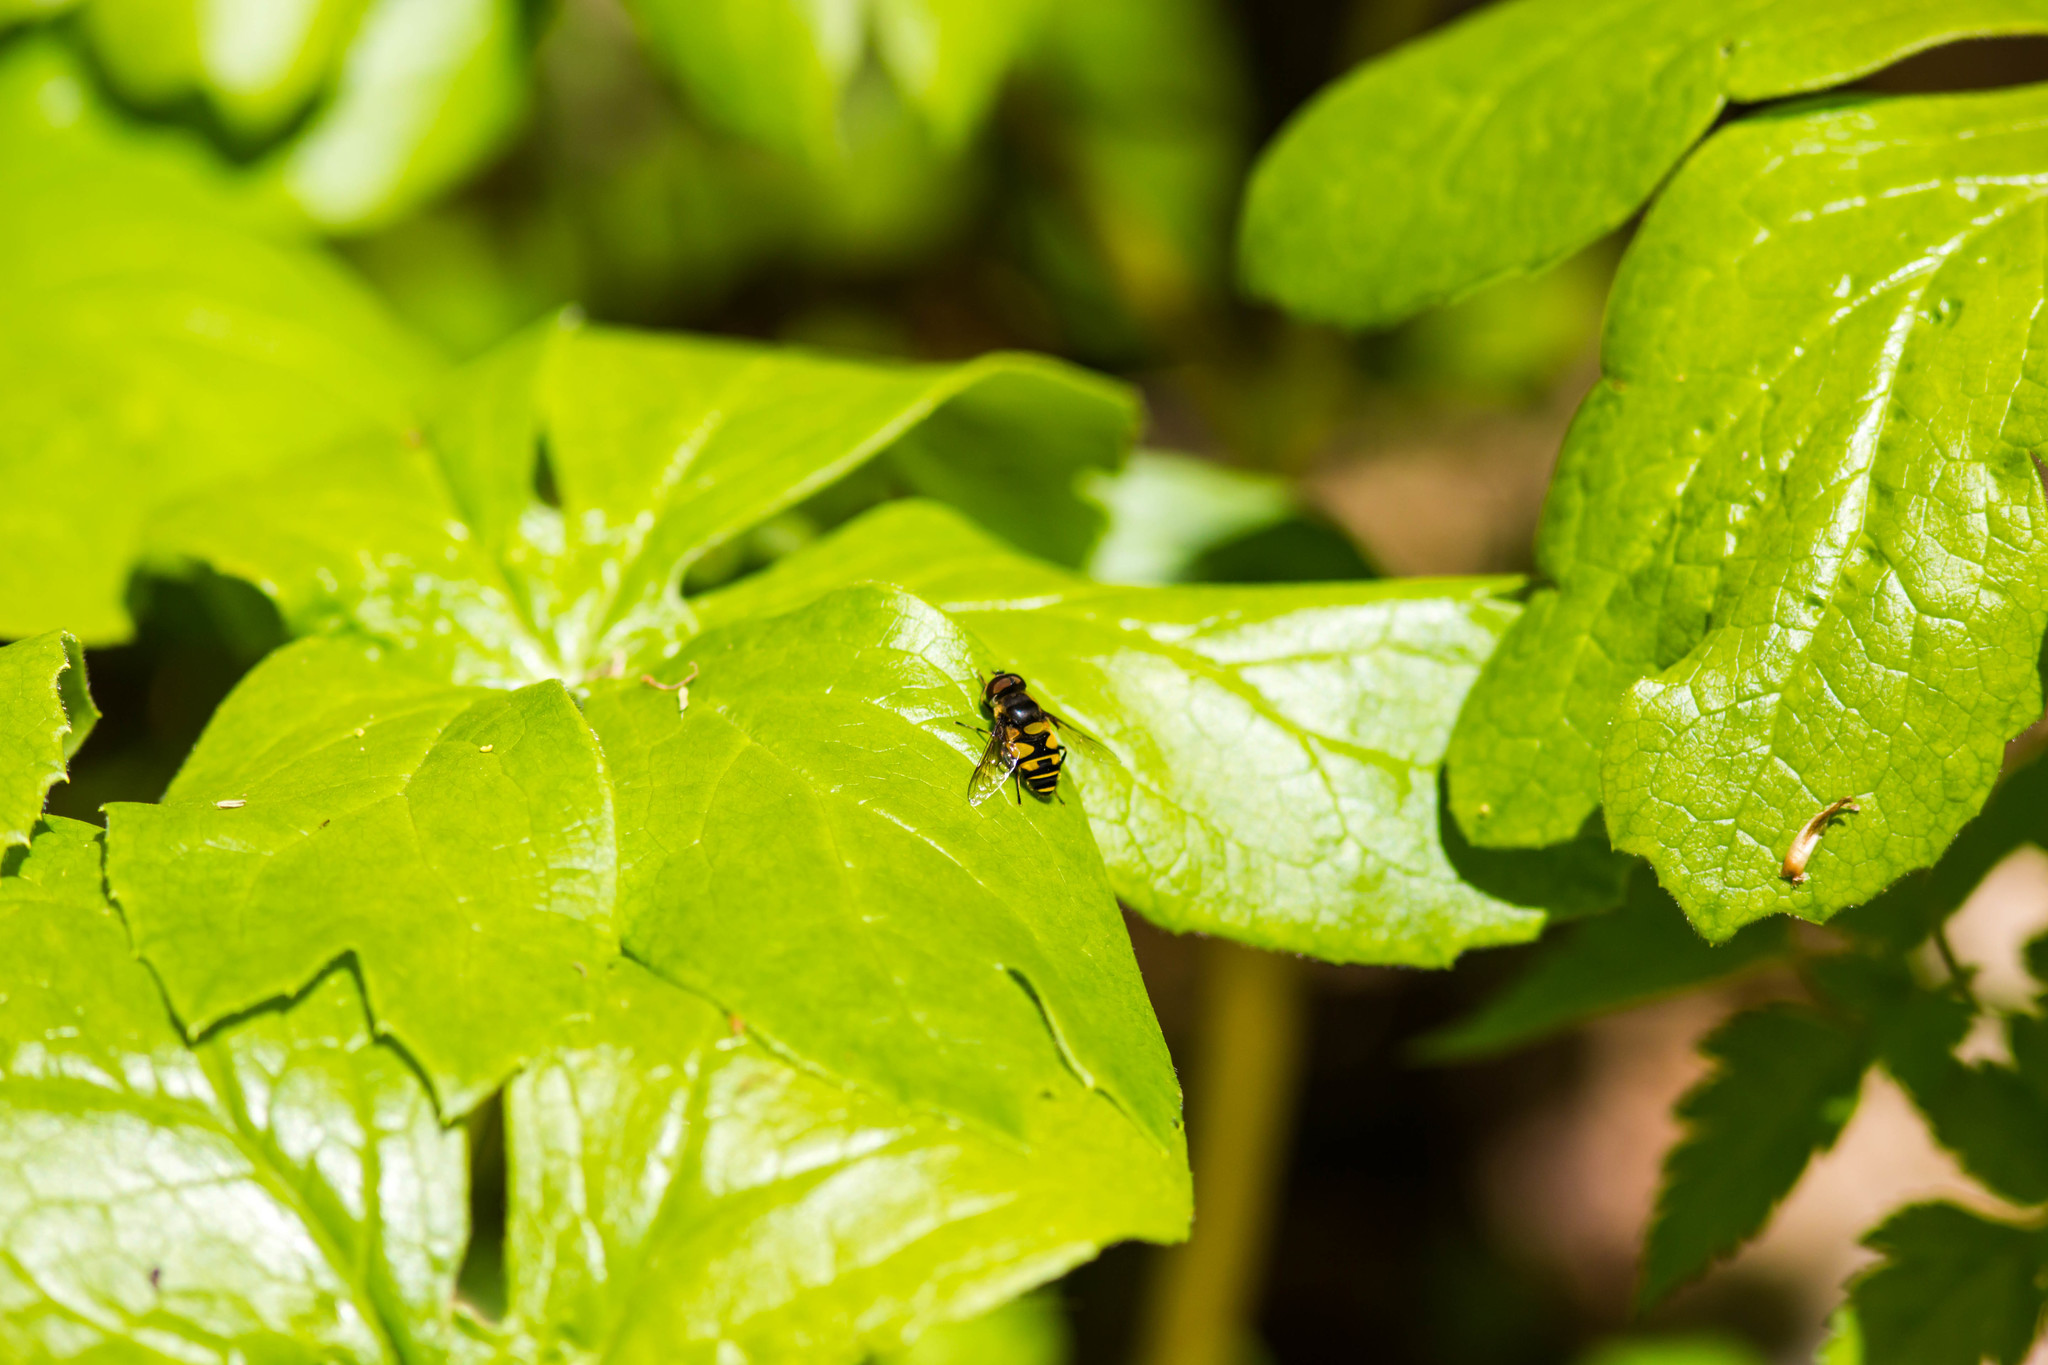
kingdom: Animalia
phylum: Arthropoda
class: Insecta
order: Diptera
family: Syrphidae
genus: Eristalis
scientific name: Eristalis transversa
